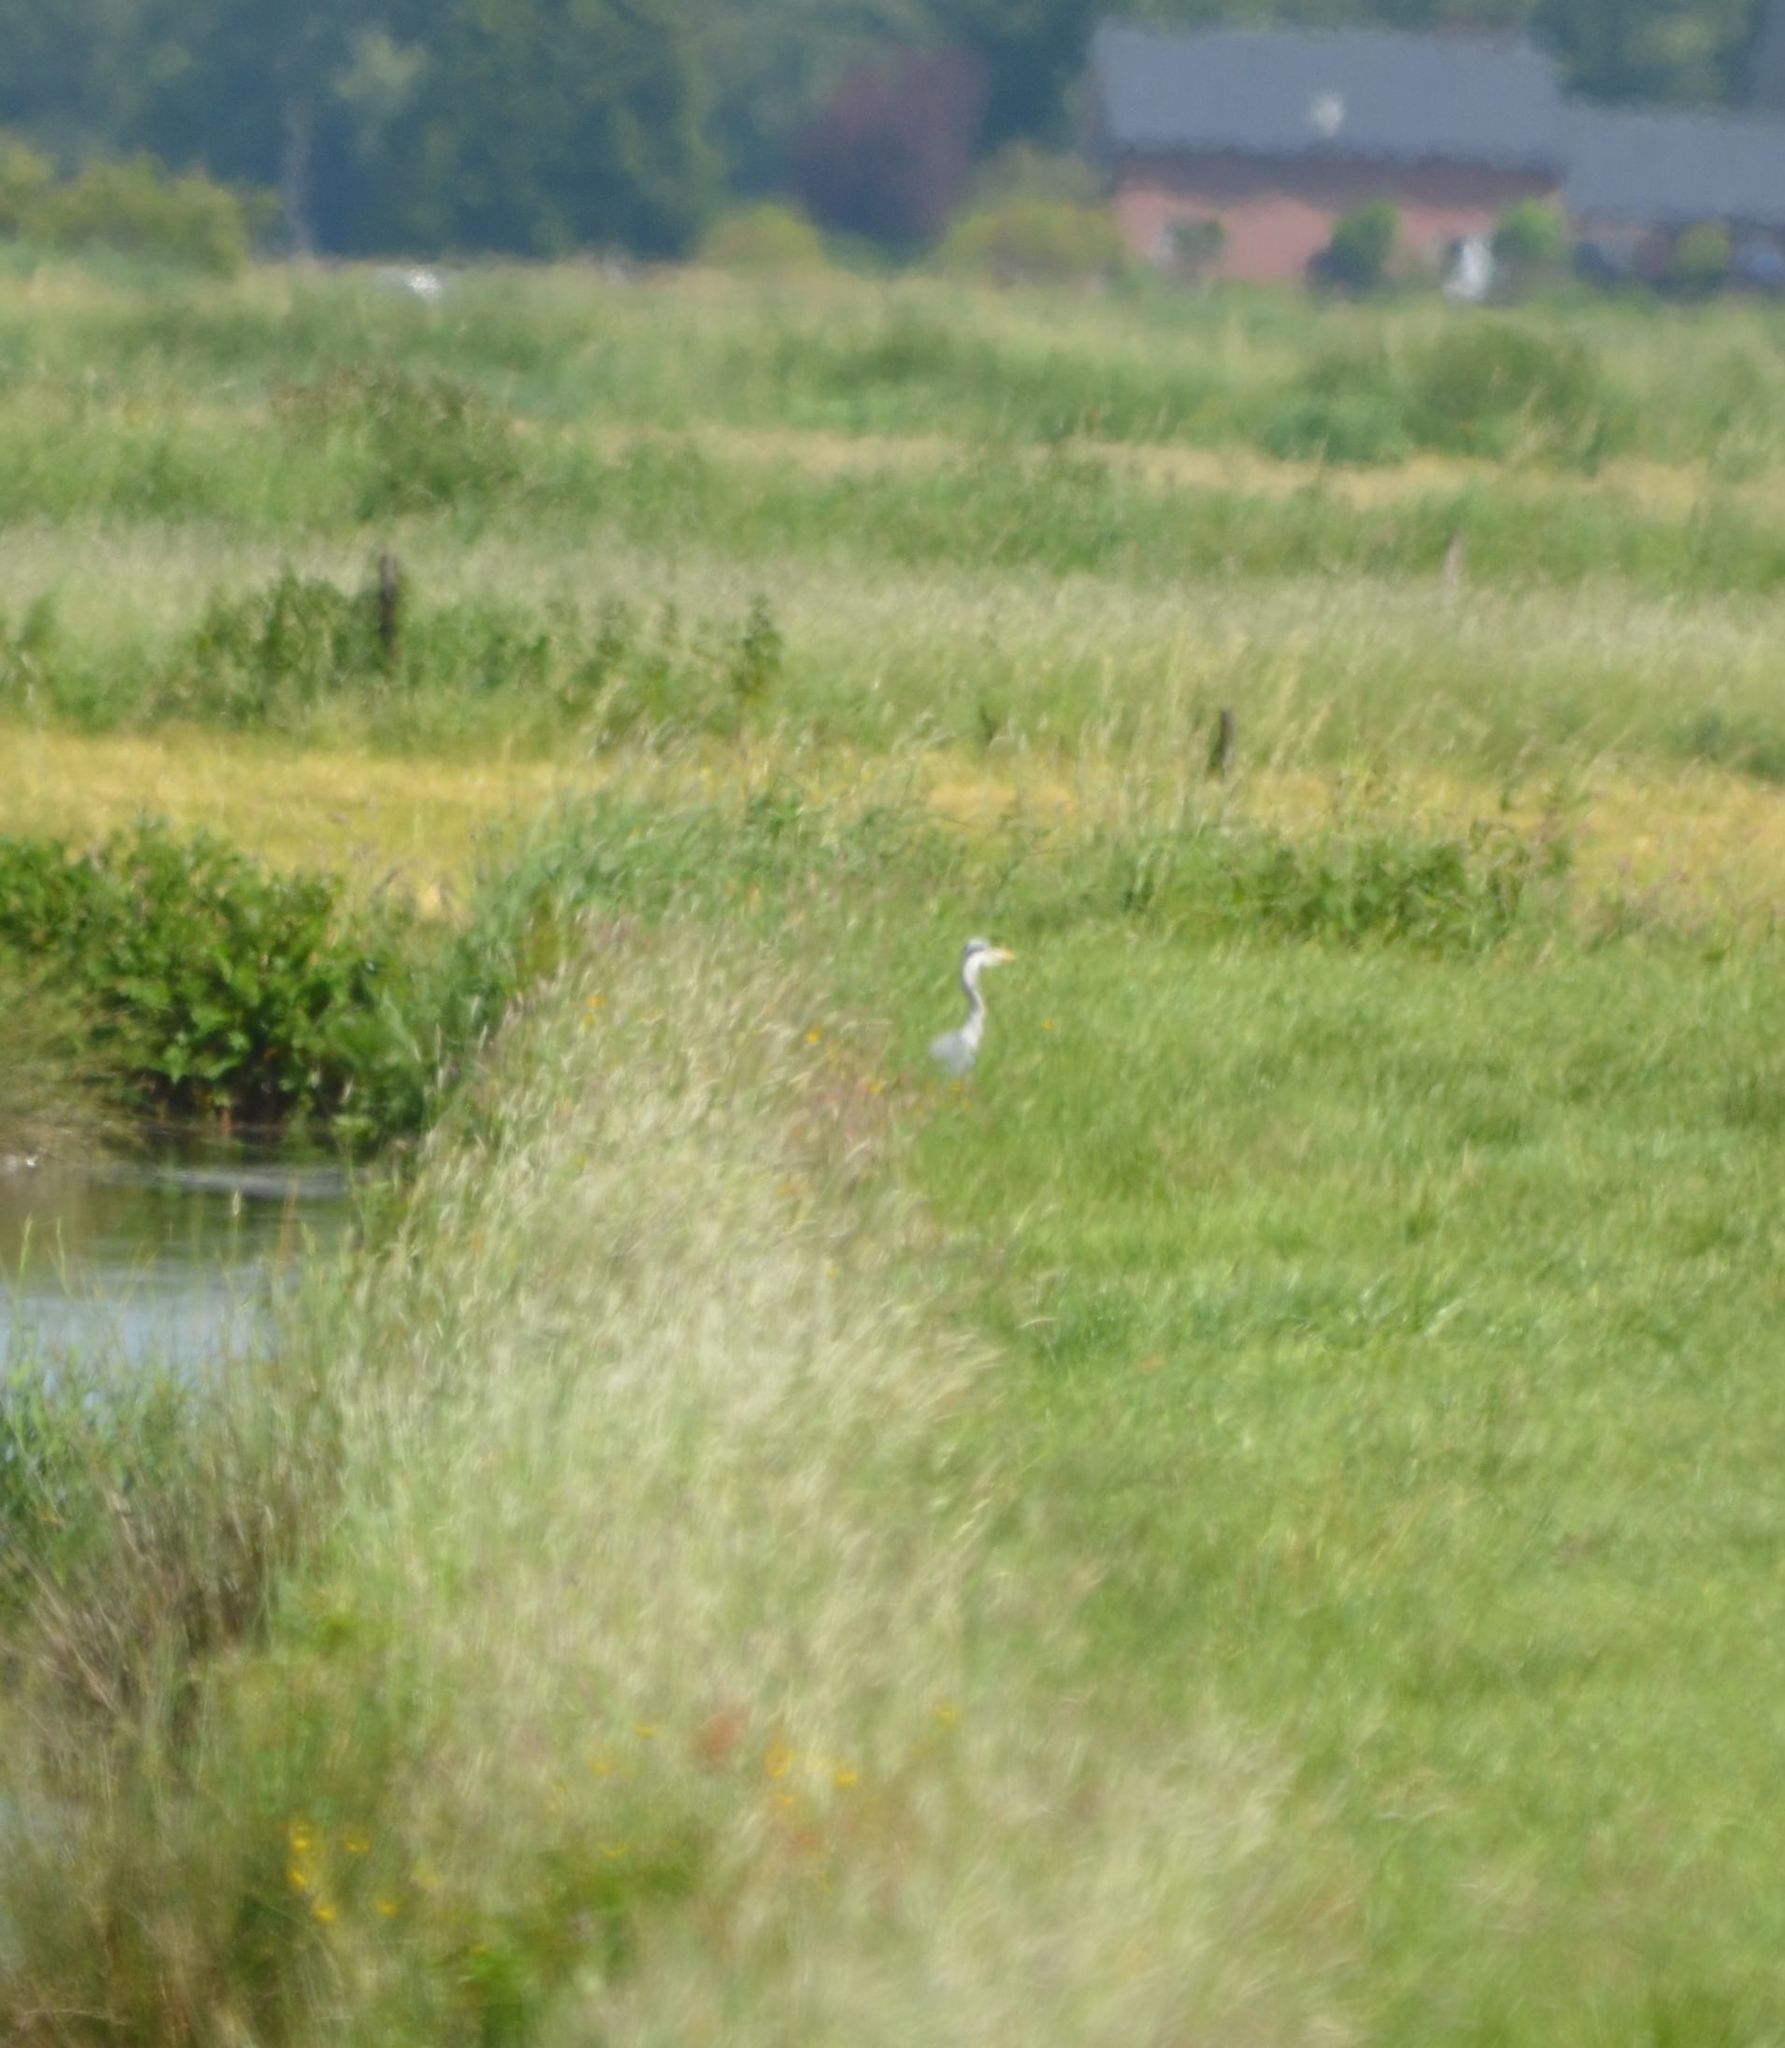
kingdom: Animalia
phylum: Chordata
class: Aves
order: Pelecaniformes
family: Ardeidae
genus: Ardea
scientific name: Ardea cinerea
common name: Grey heron
